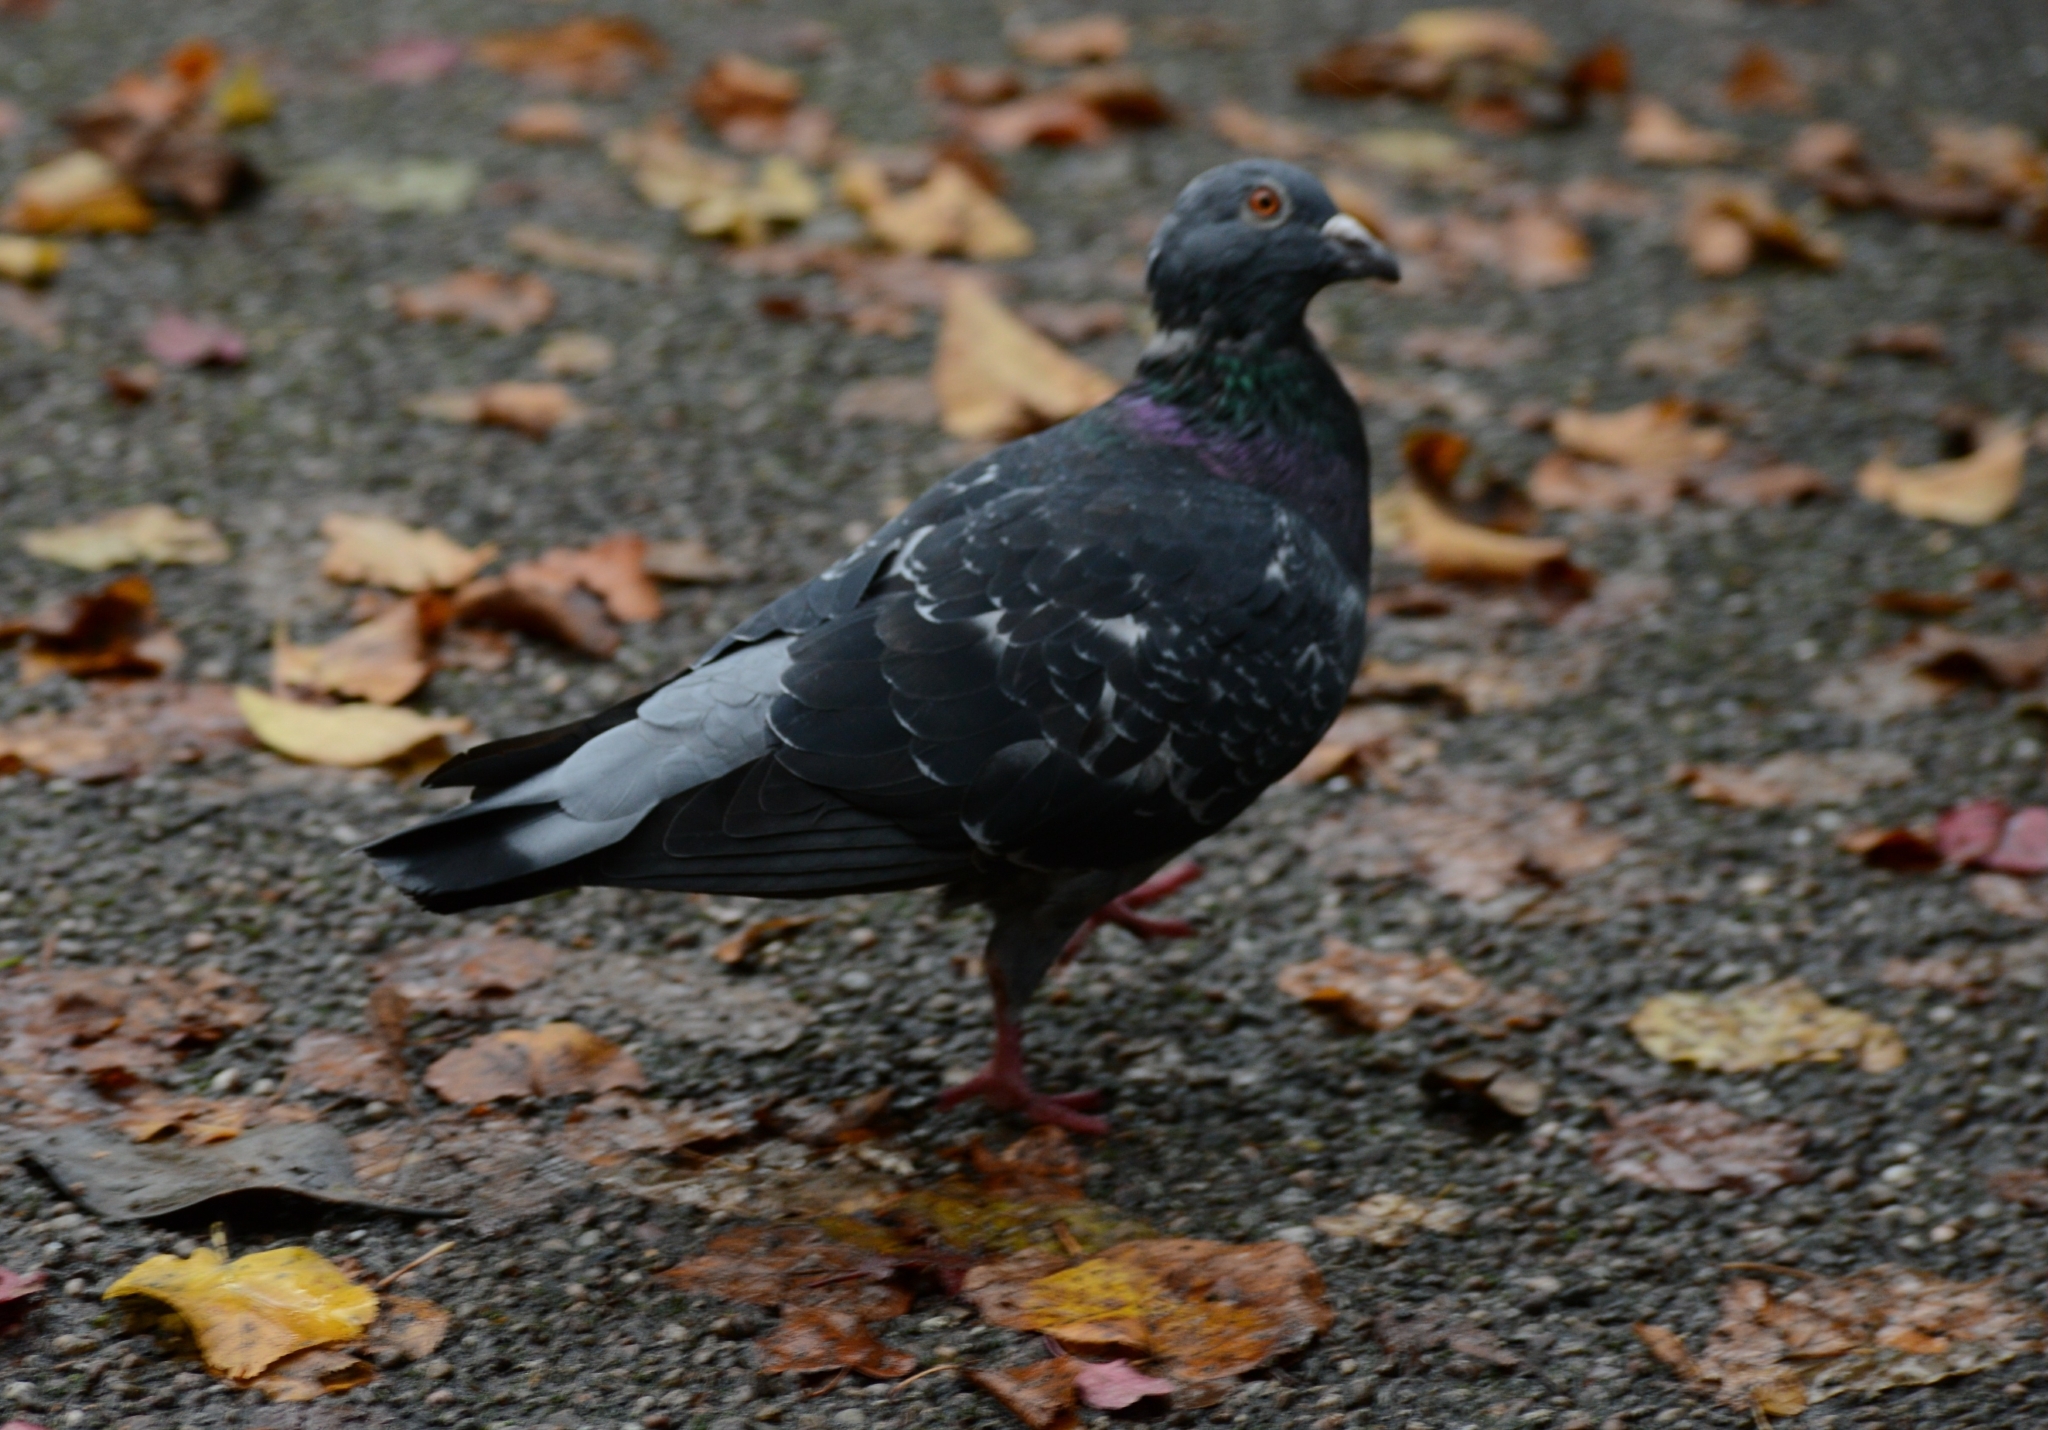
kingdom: Animalia
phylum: Chordata
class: Aves
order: Columbiformes
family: Columbidae
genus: Columba
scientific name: Columba livia
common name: Rock pigeon
